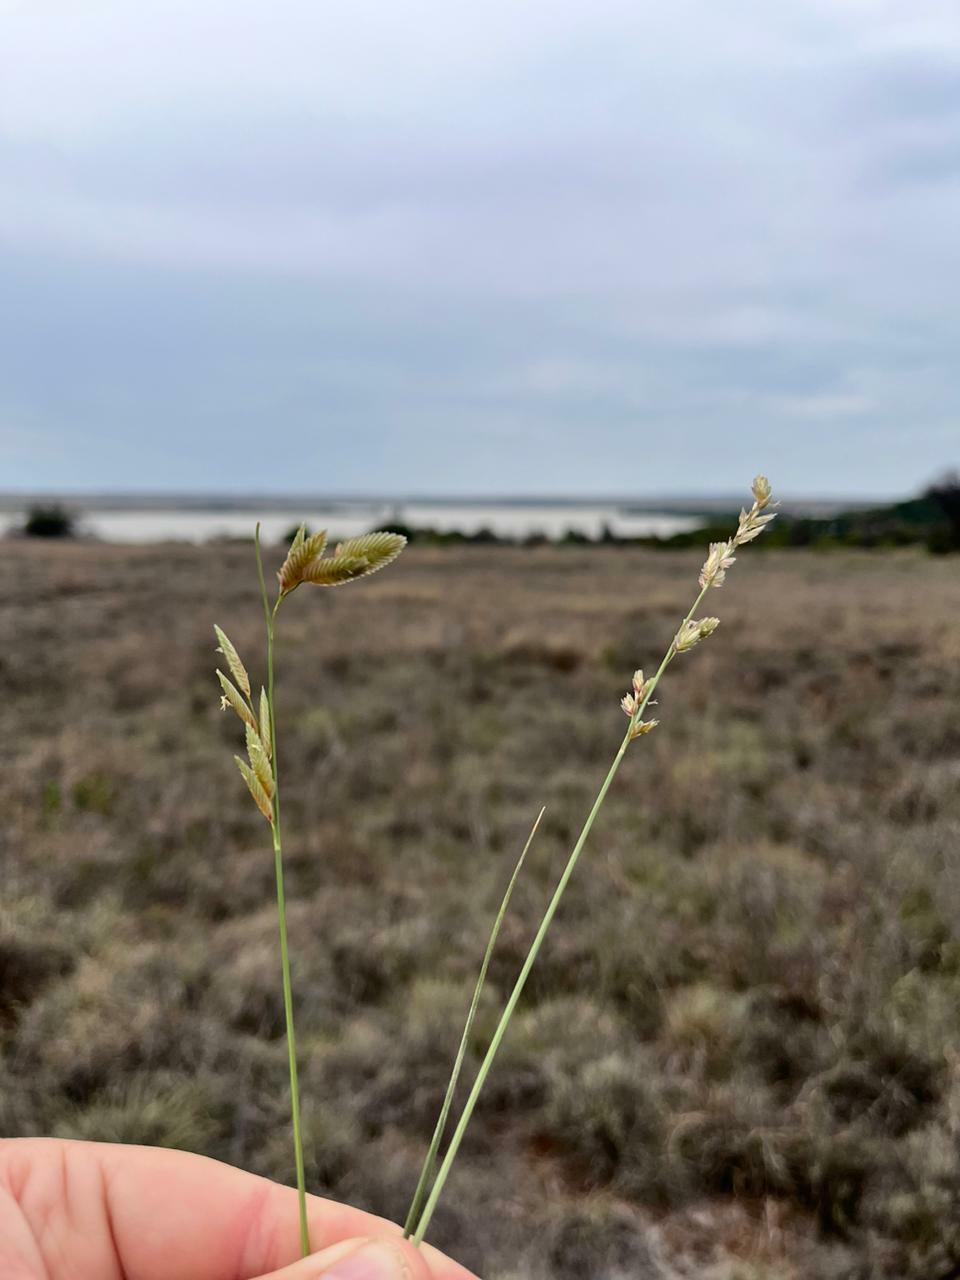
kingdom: Plantae
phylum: Tracheophyta
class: Liliopsida
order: Poales
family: Poaceae
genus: Eragrostis
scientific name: Eragrostis superba
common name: Wilman lovegrass
